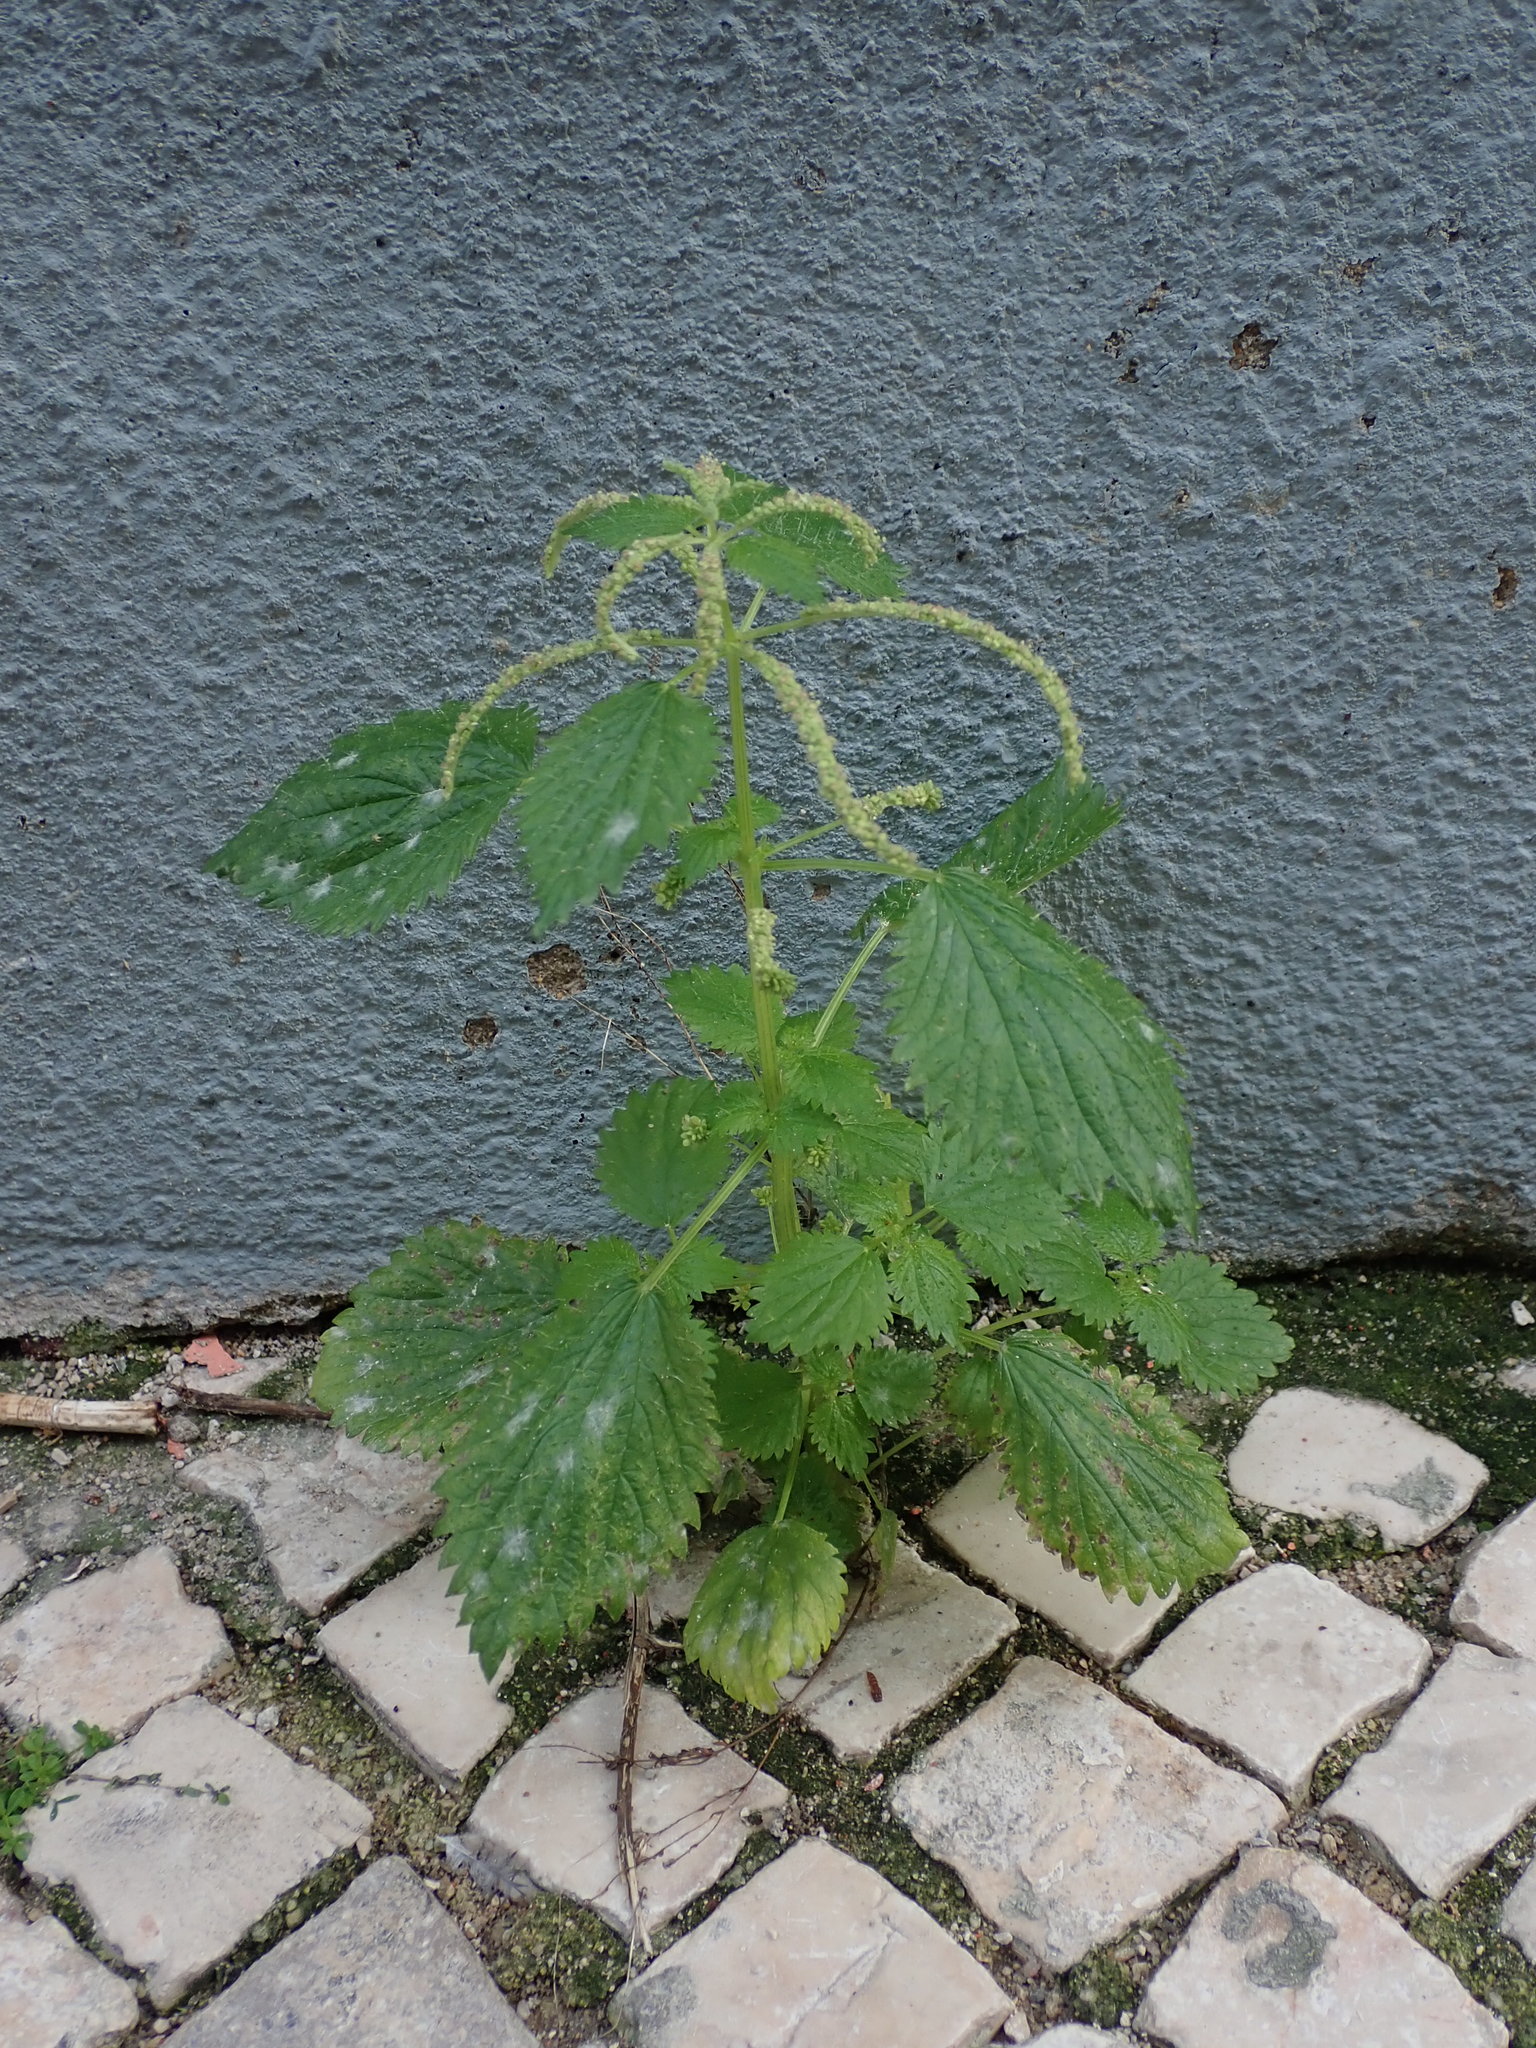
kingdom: Plantae
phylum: Tracheophyta
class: Magnoliopsida
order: Rosales
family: Urticaceae
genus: Urtica
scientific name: Urtica membranacea
